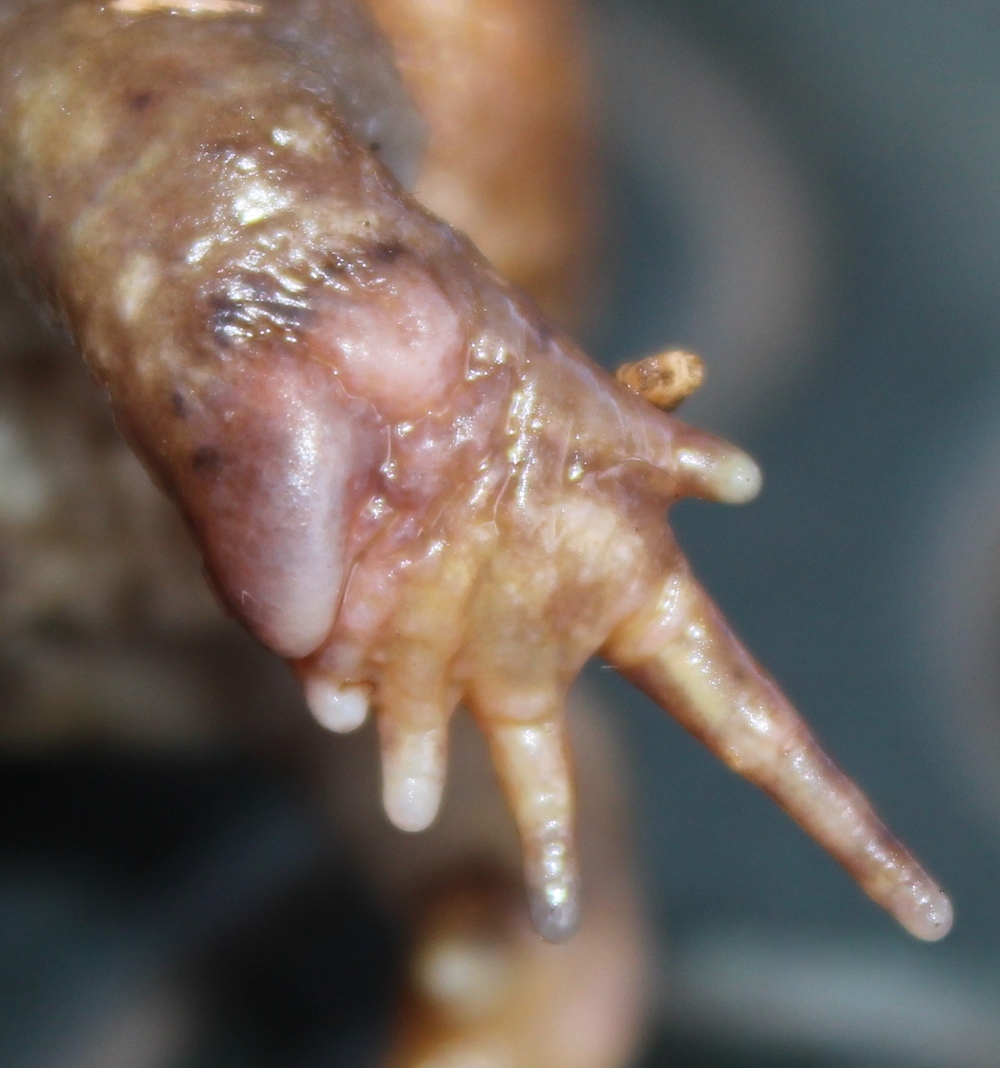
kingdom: Animalia
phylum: Chordata
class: Amphibia
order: Anura
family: Brevicipitidae
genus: Breviceps
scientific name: Breviceps gibbosus
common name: Cape rain frog
